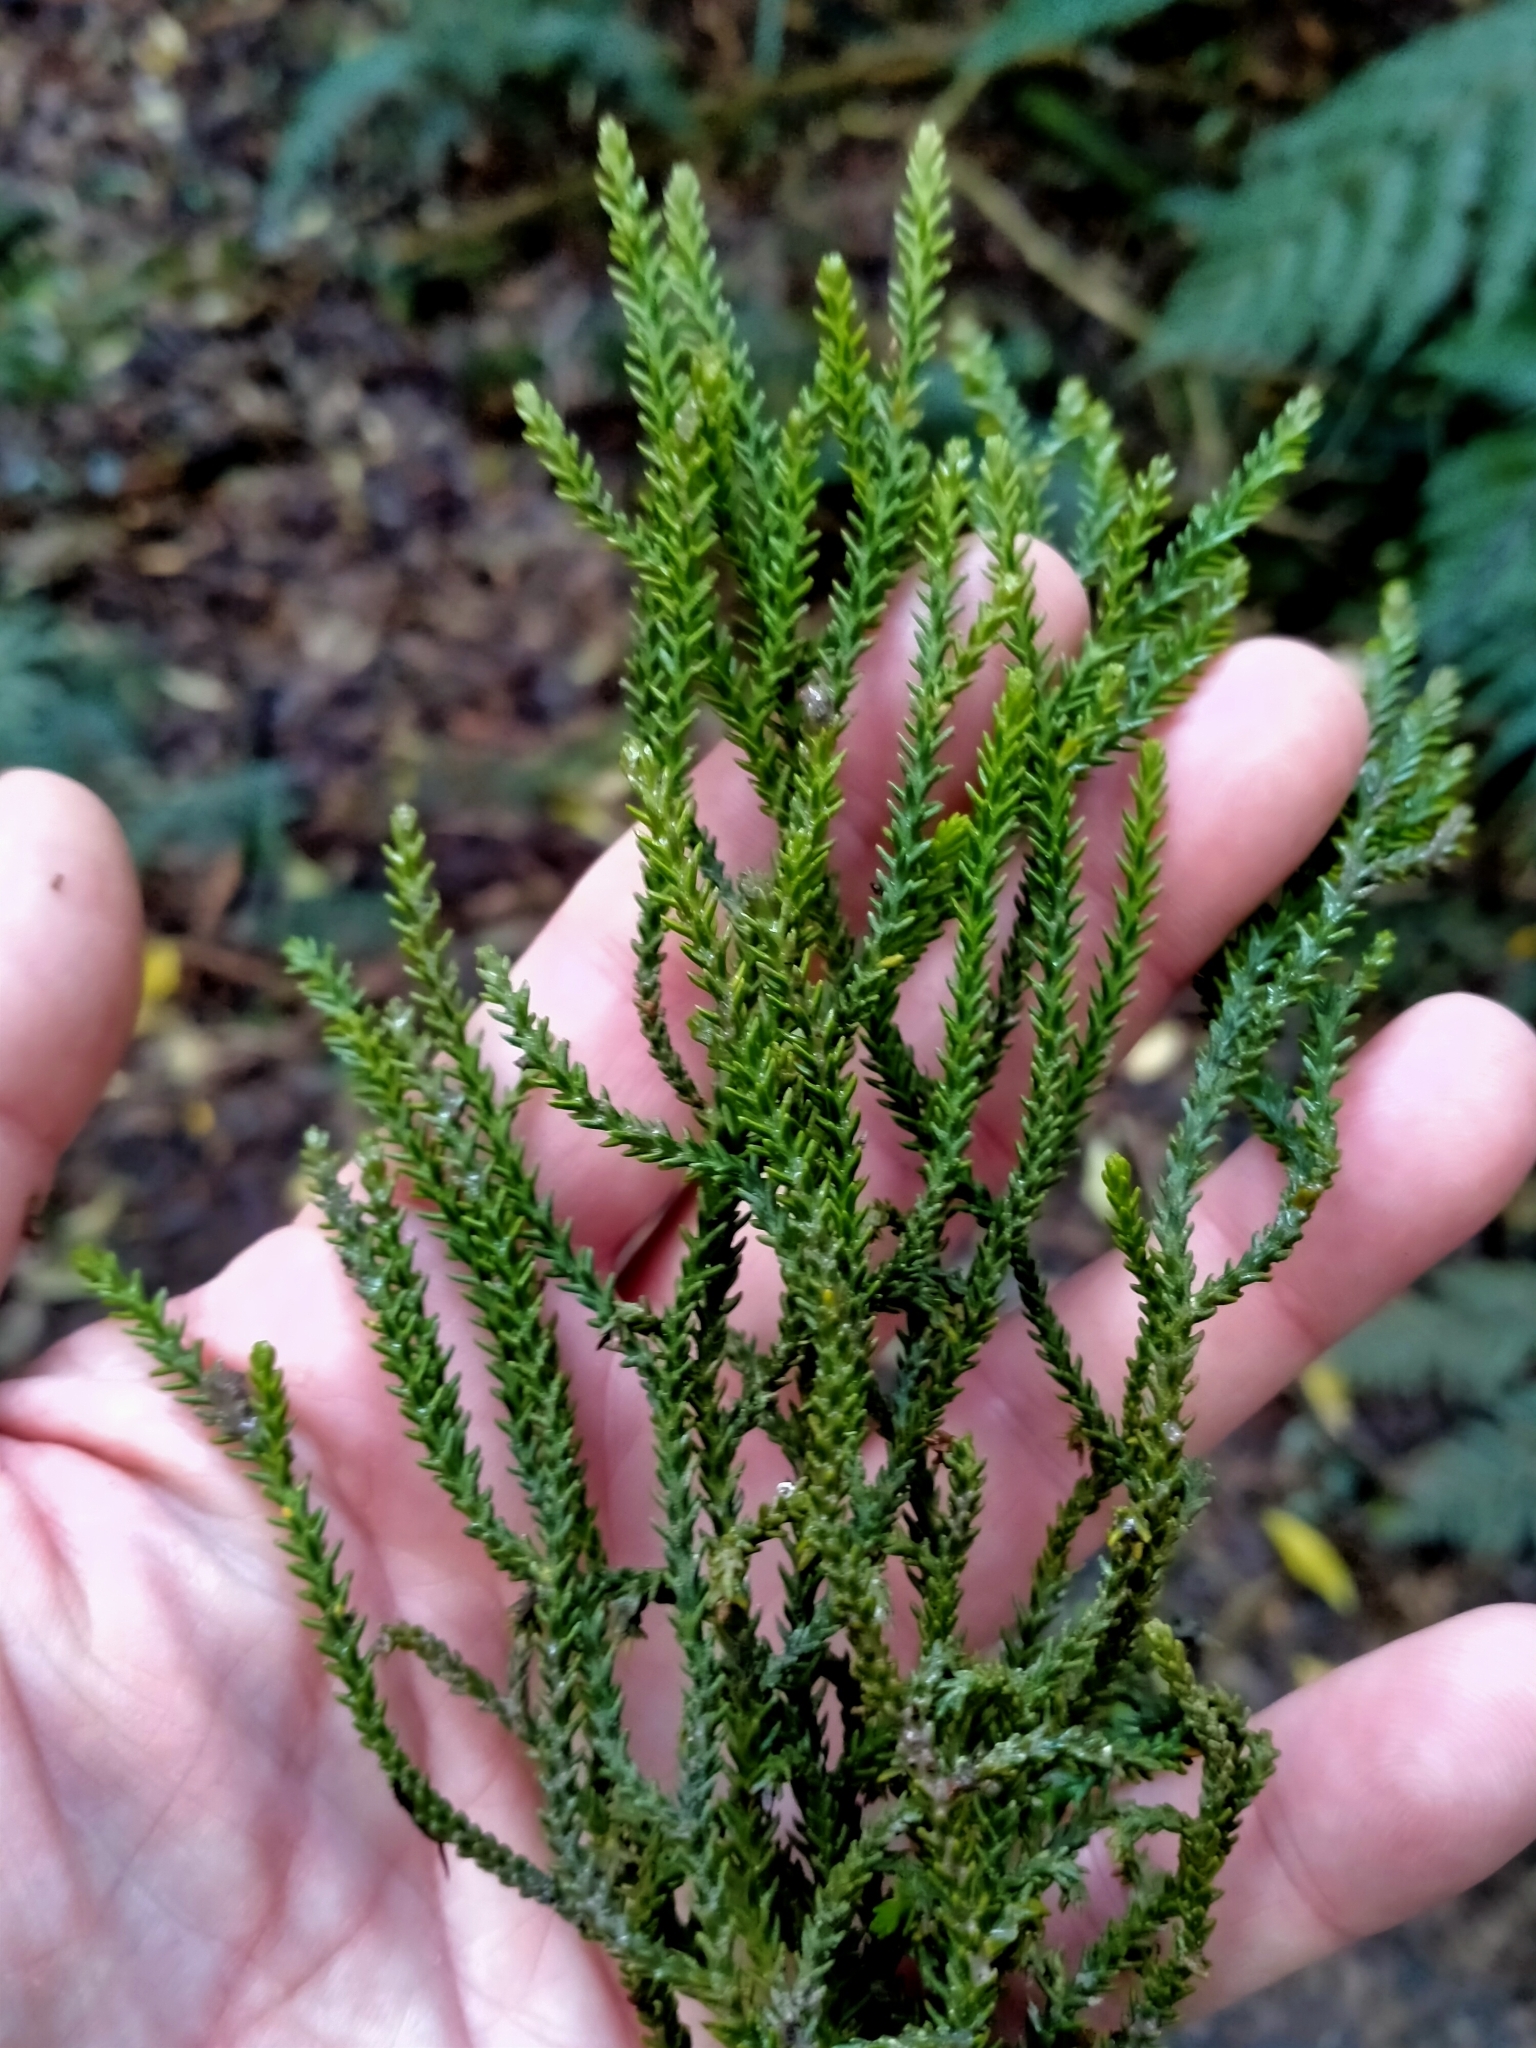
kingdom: Plantae
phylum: Tracheophyta
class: Pinopsida
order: Pinales
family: Podocarpaceae
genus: Dacrydium
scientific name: Dacrydium cupressinum
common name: Red pine
